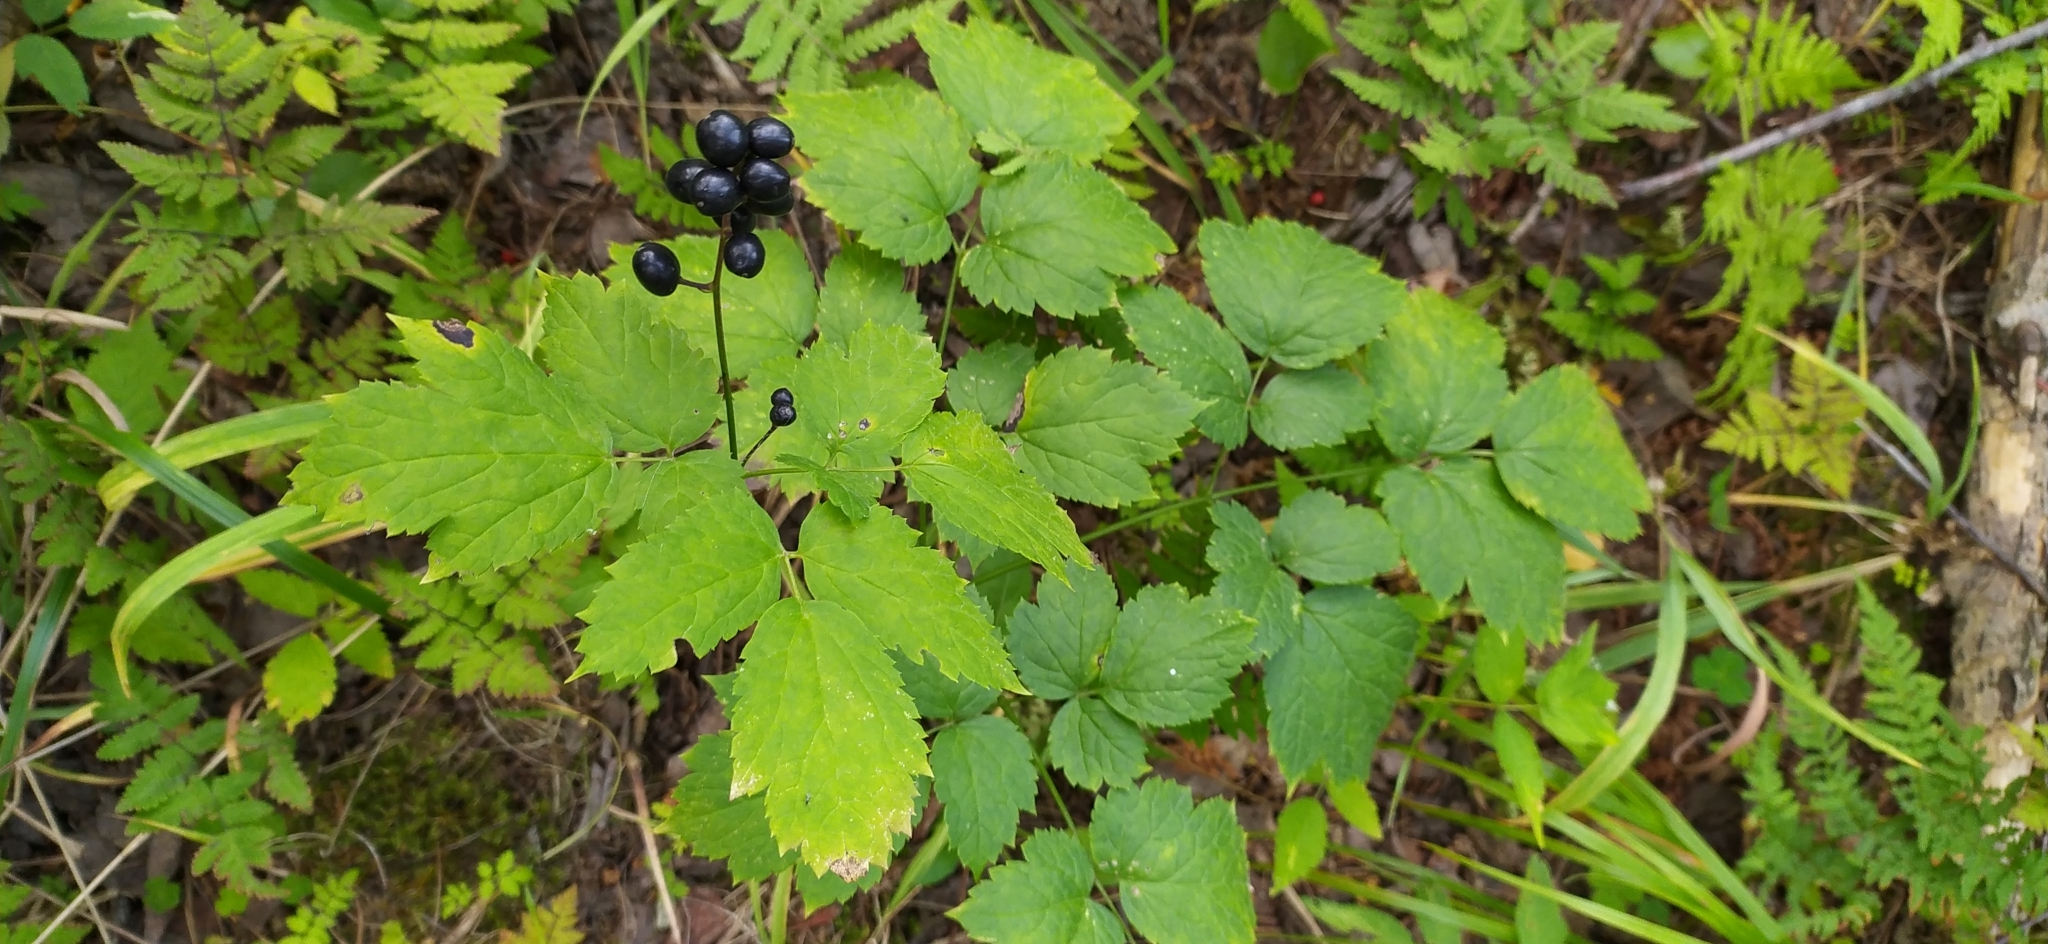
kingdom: Plantae
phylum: Tracheophyta
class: Magnoliopsida
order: Ranunculales
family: Ranunculaceae
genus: Actaea
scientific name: Actaea spicata
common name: Baneberry
